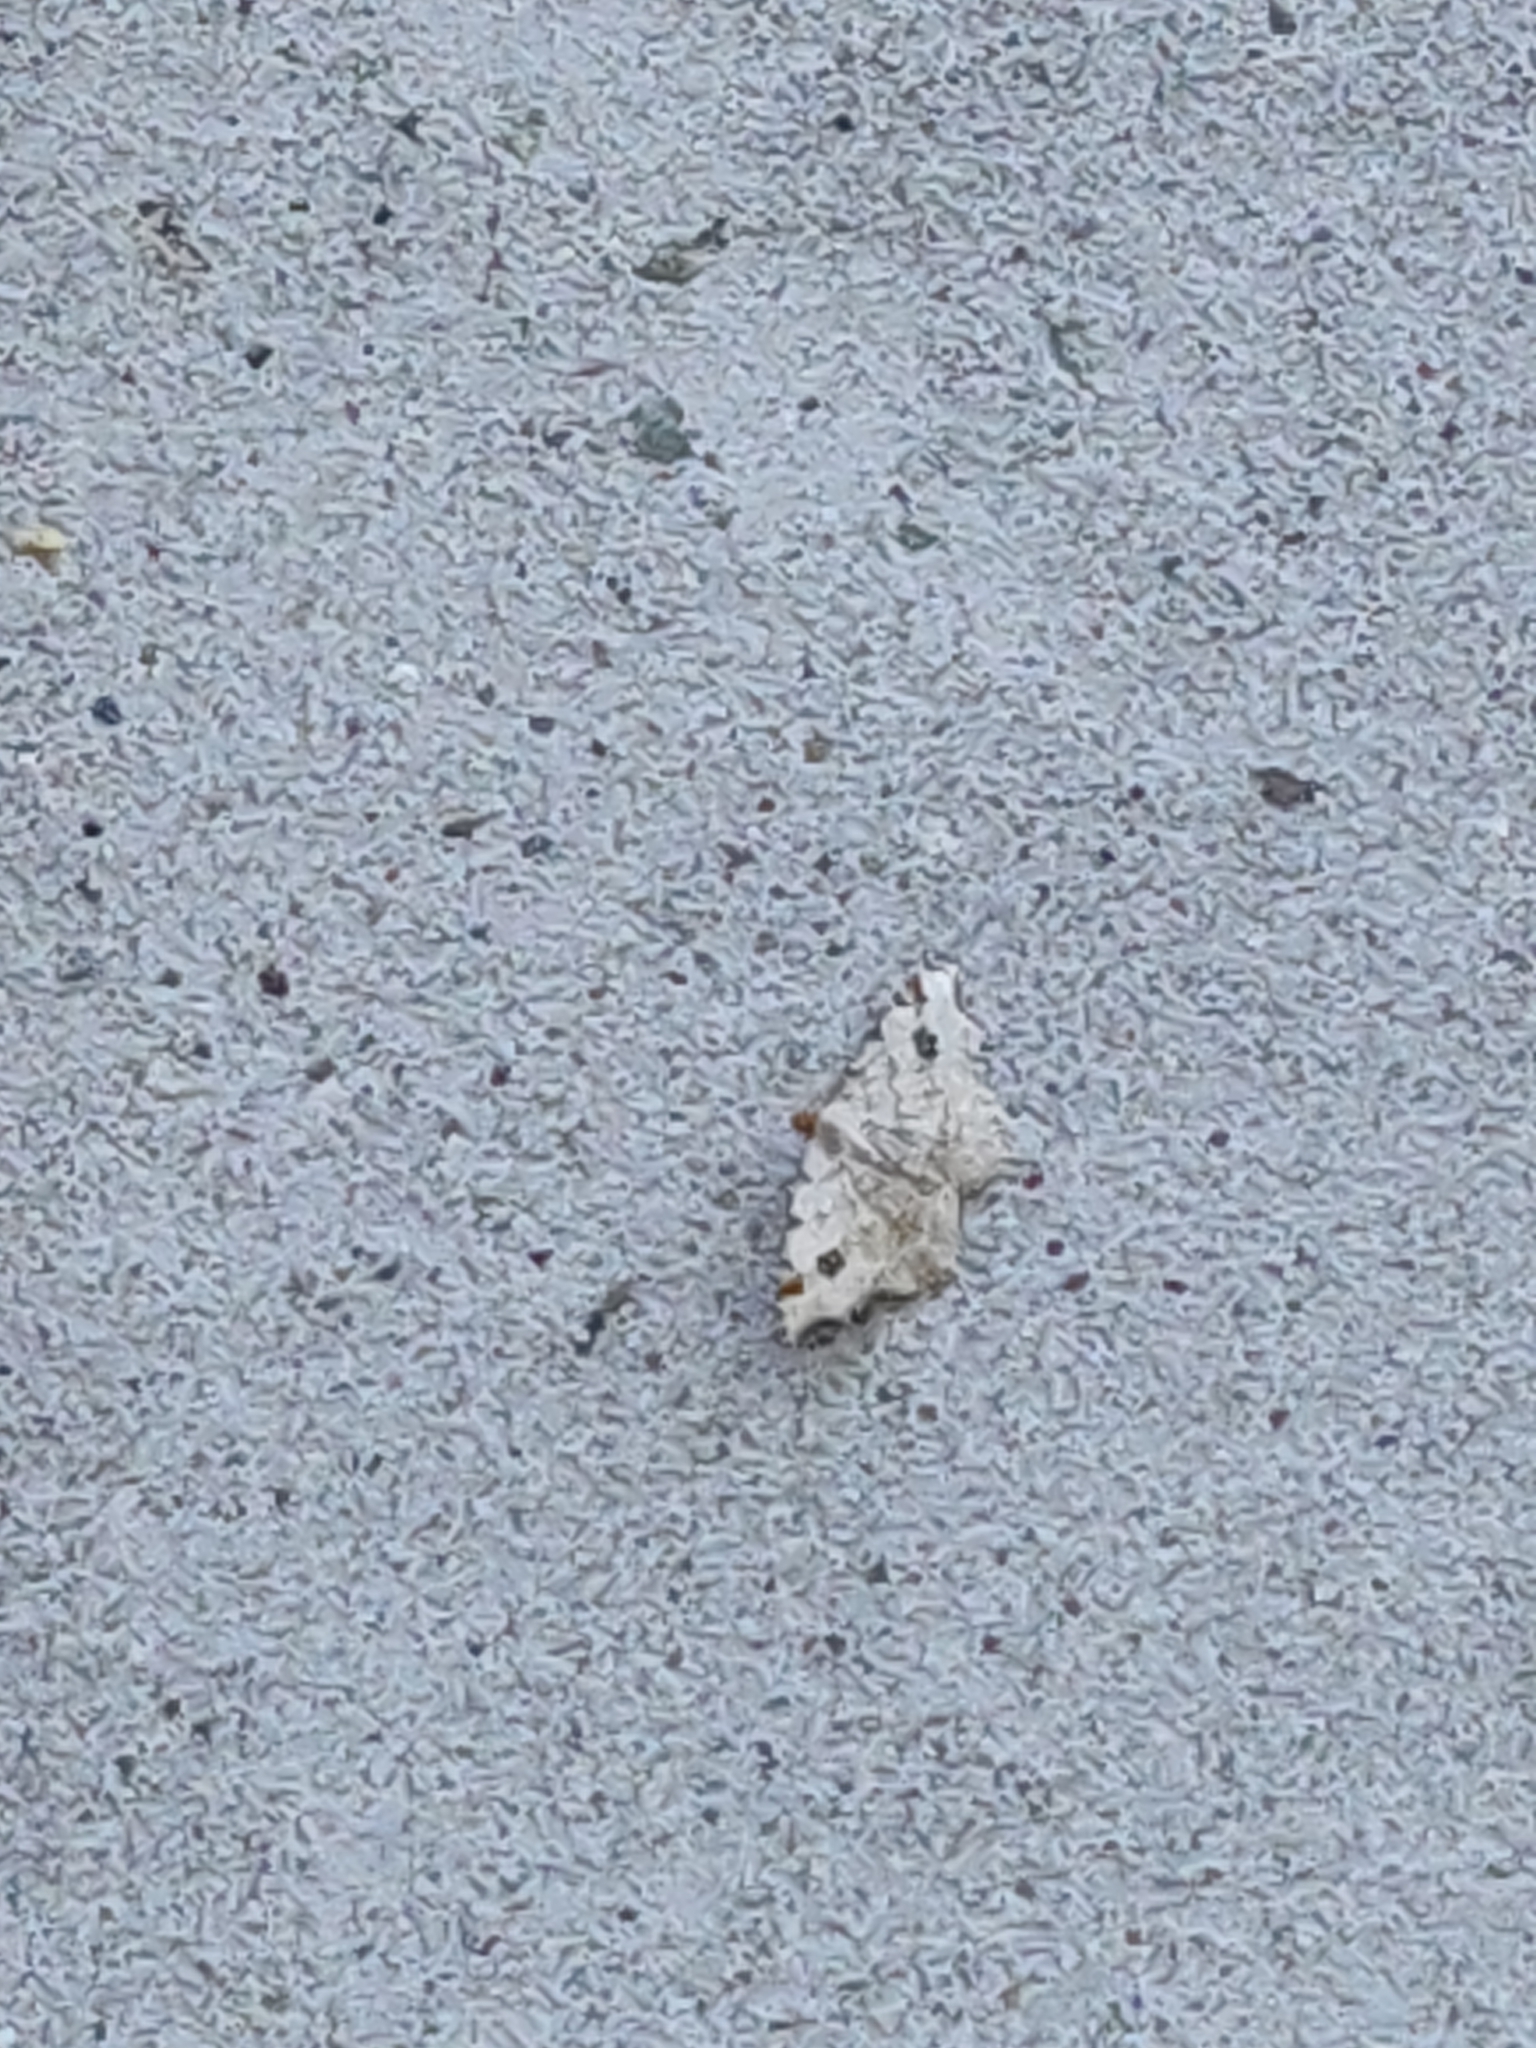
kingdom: Animalia
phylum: Arthropoda
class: Insecta
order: Lepidoptera
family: Geometridae
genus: Macaria
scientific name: Macaria notata
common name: Peacock moth
